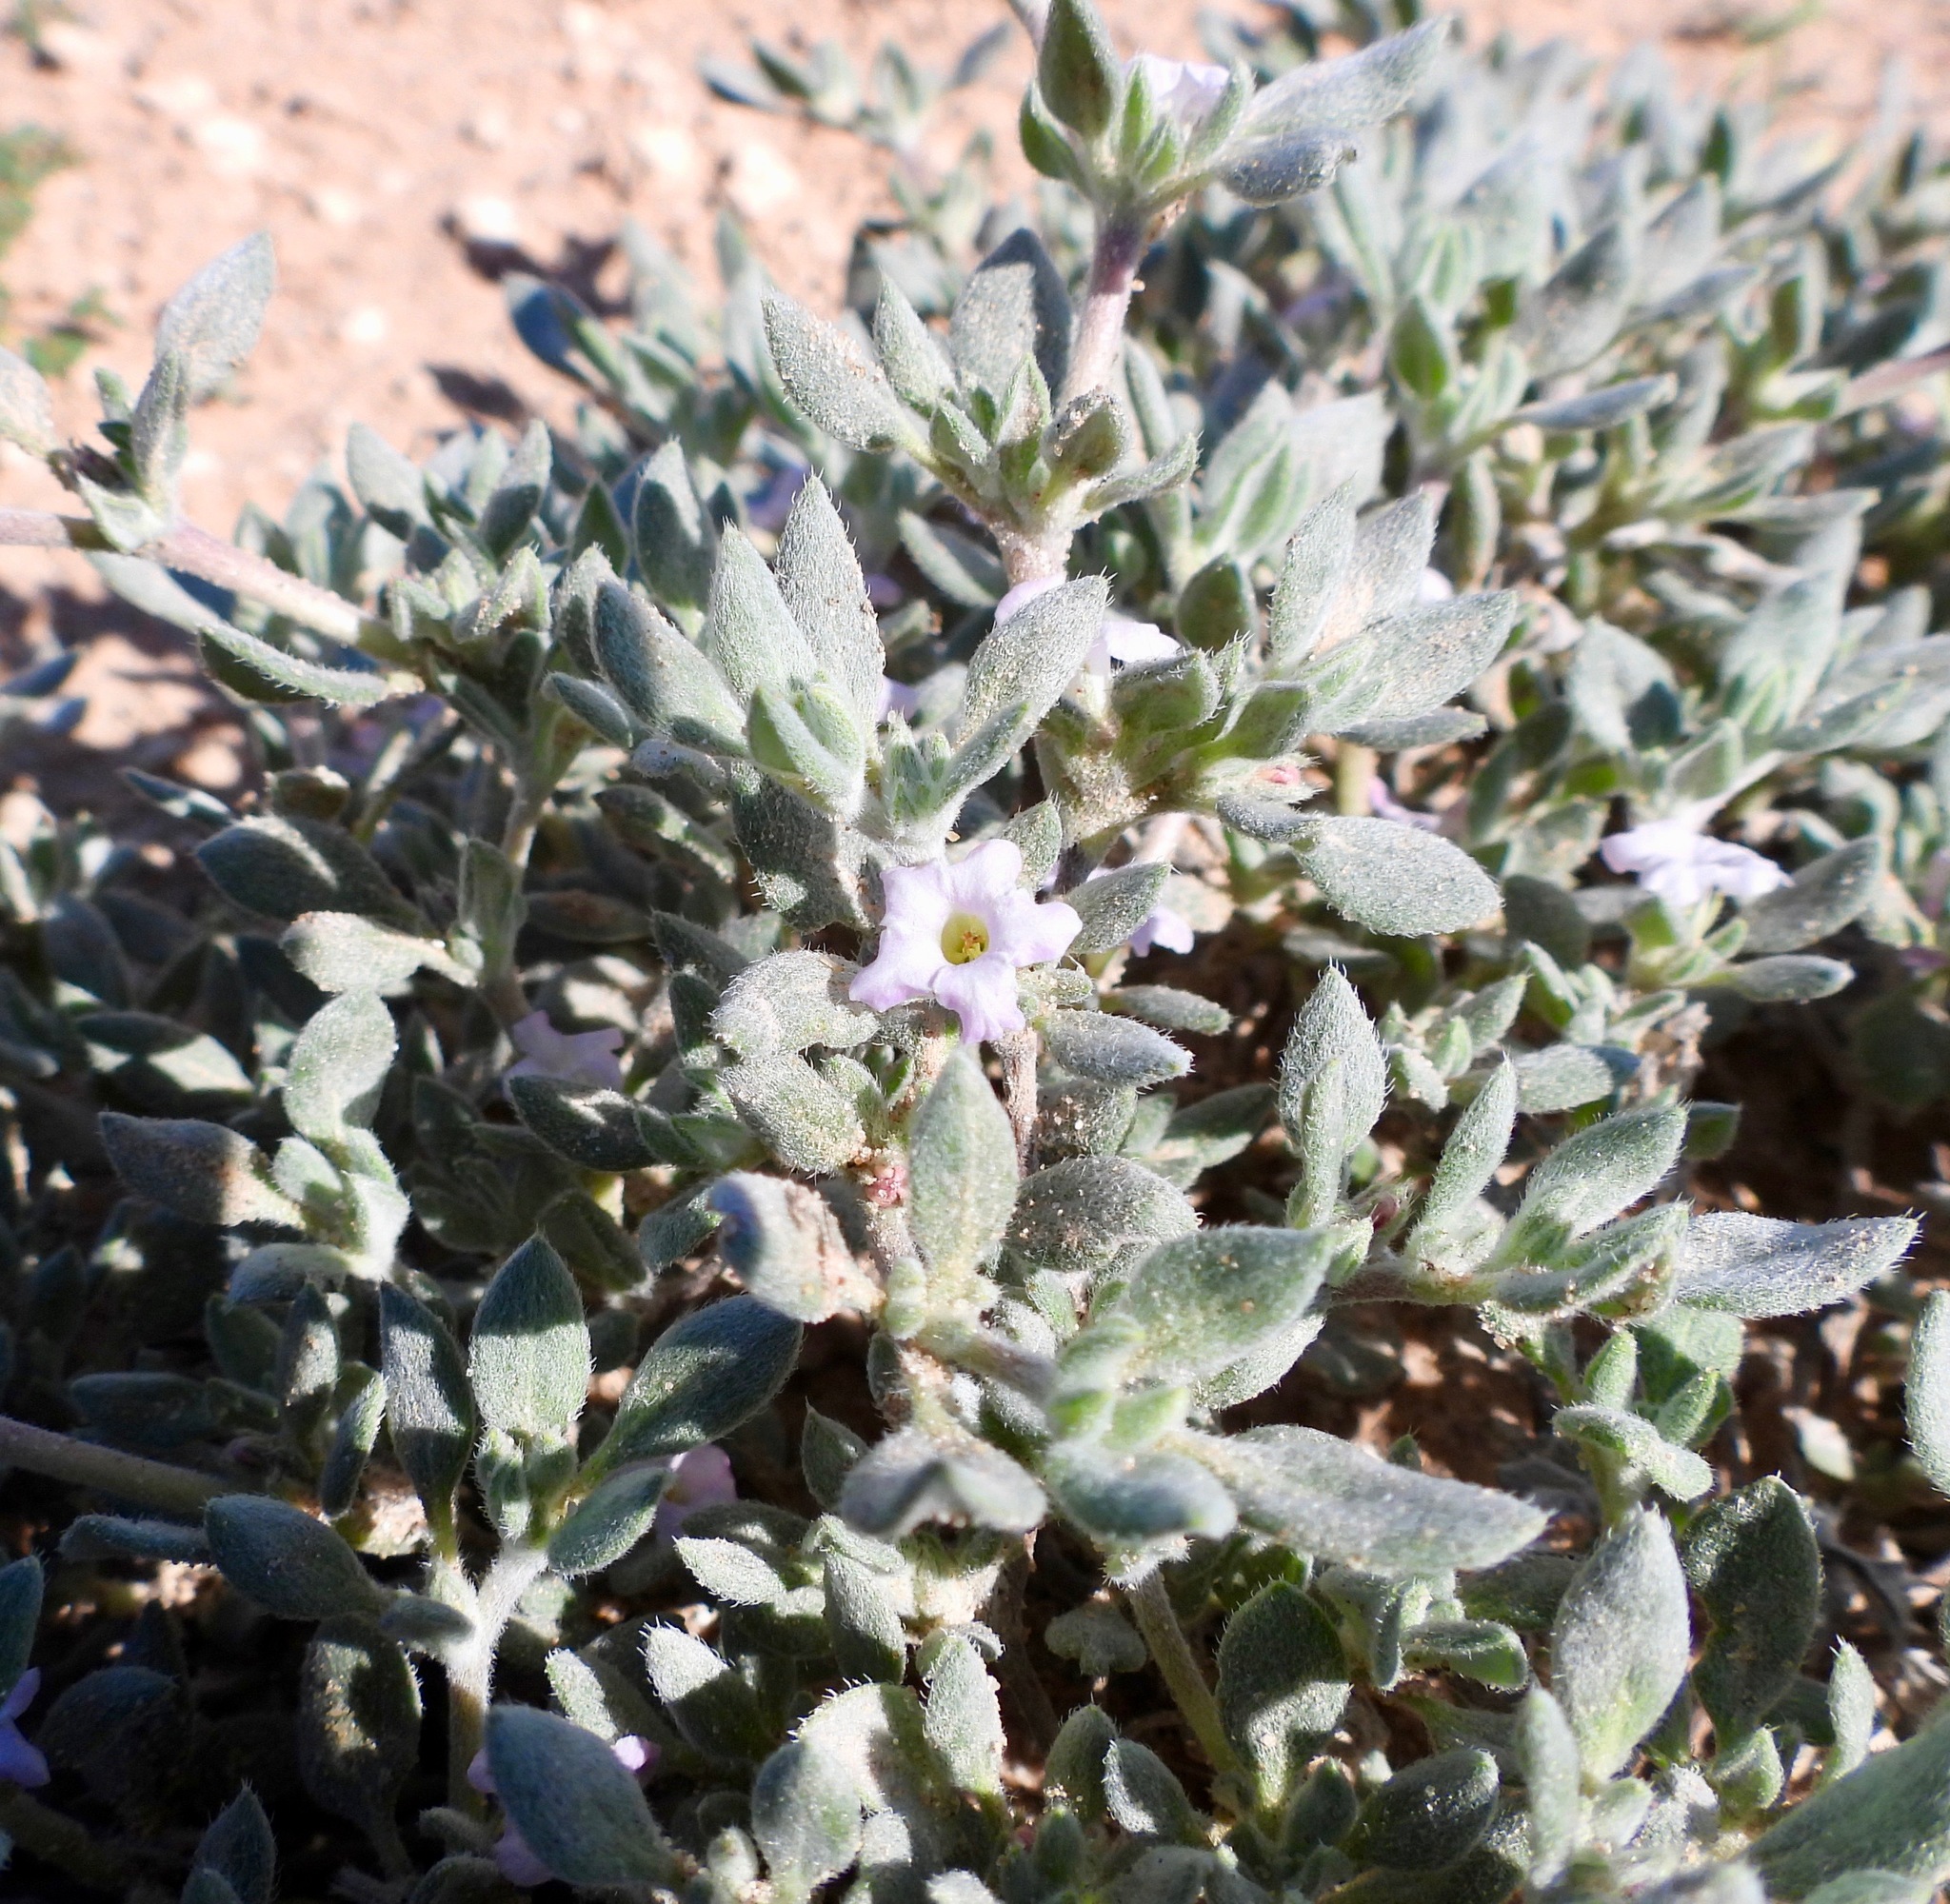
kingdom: Plantae
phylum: Tracheophyta
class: Magnoliopsida
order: Boraginales
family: Ehretiaceae
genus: Tiquilia
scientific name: Tiquilia canescens
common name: Hairy tiquilia
